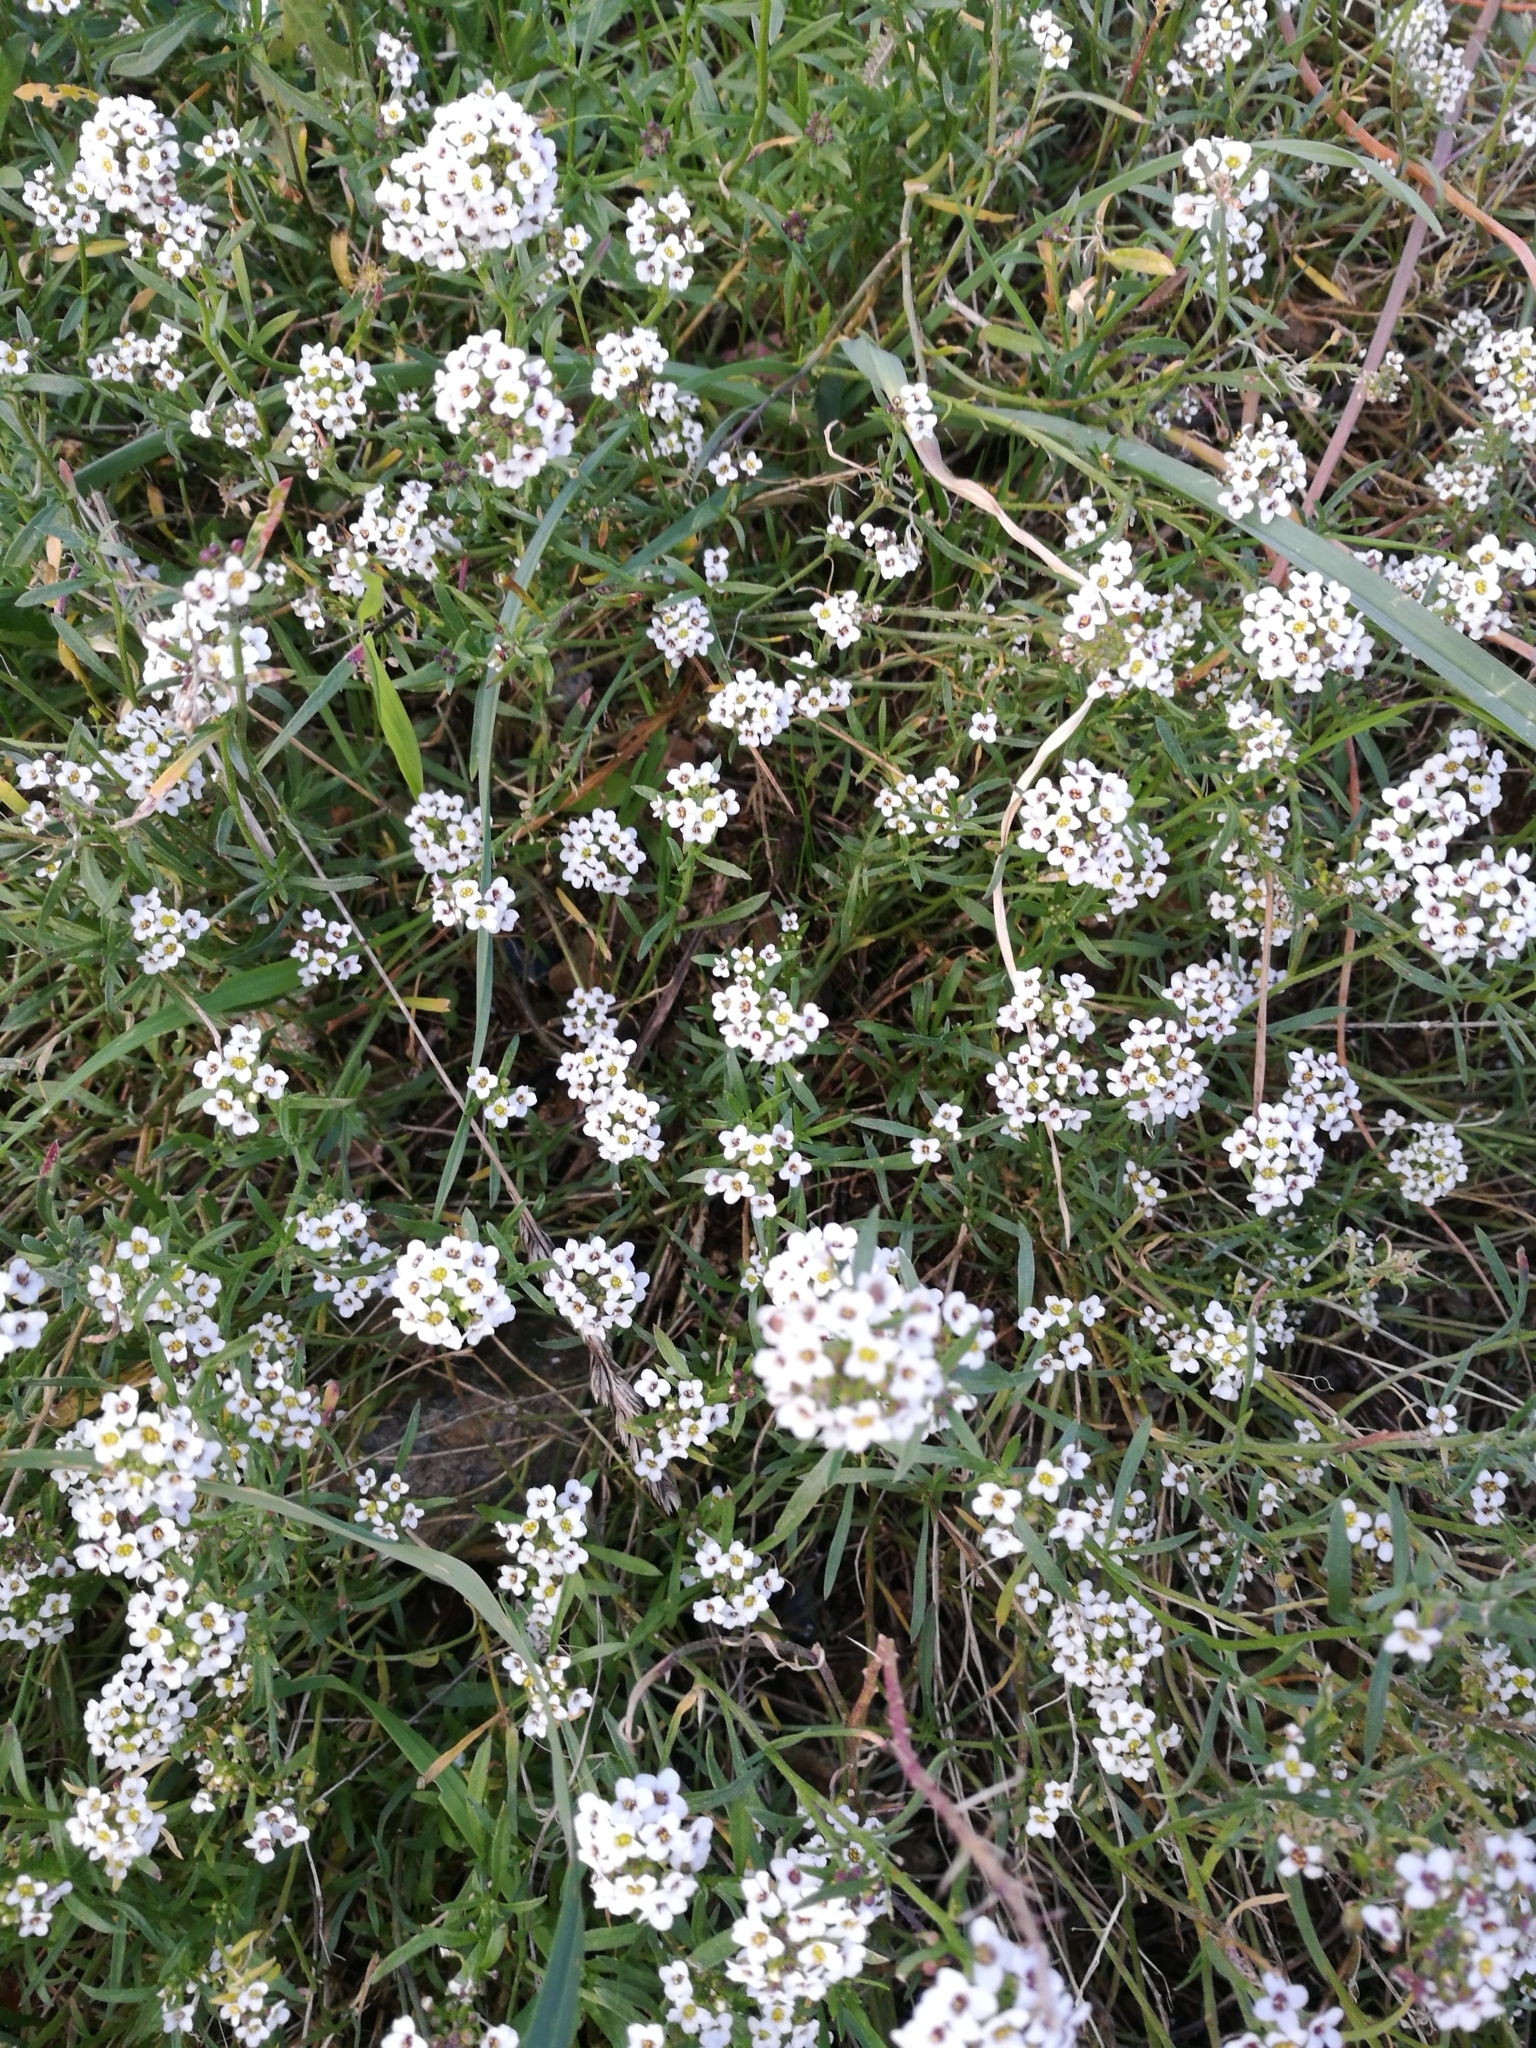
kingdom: Plantae
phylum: Tracheophyta
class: Magnoliopsida
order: Brassicales
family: Brassicaceae
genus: Lobularia
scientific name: Lobularia maritima
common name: Sweet alison
